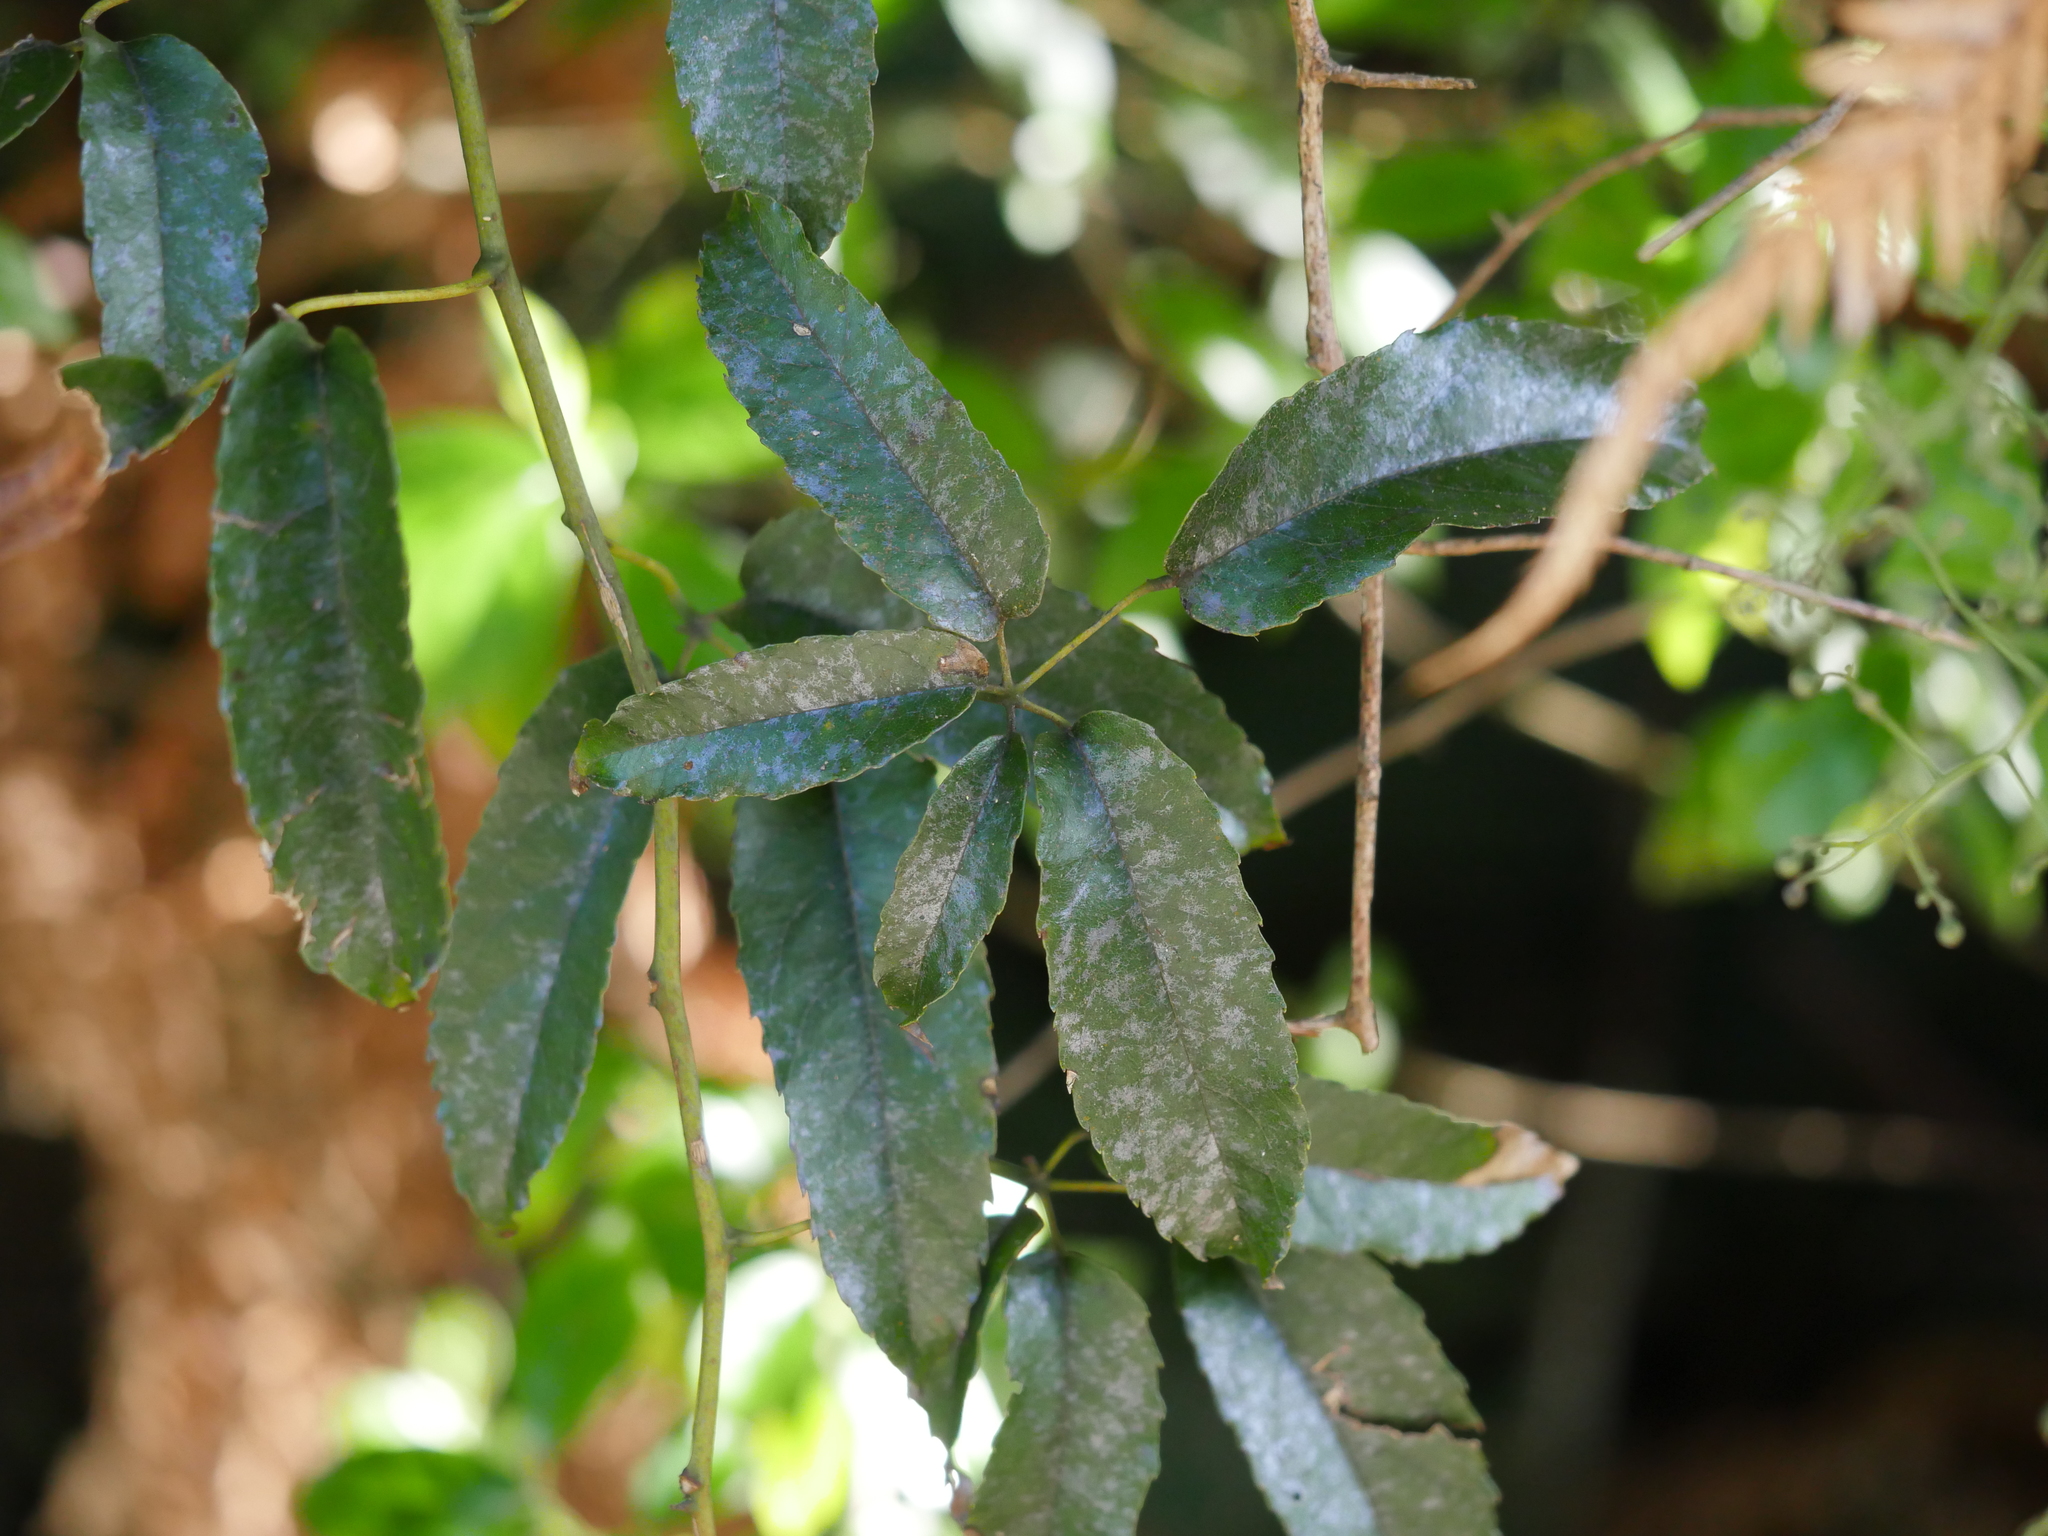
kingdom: Plantae
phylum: Tracheophyta
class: Magnoliopsida
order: Rosales
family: Rosaceae
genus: Rubus
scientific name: Rubus cissoides
